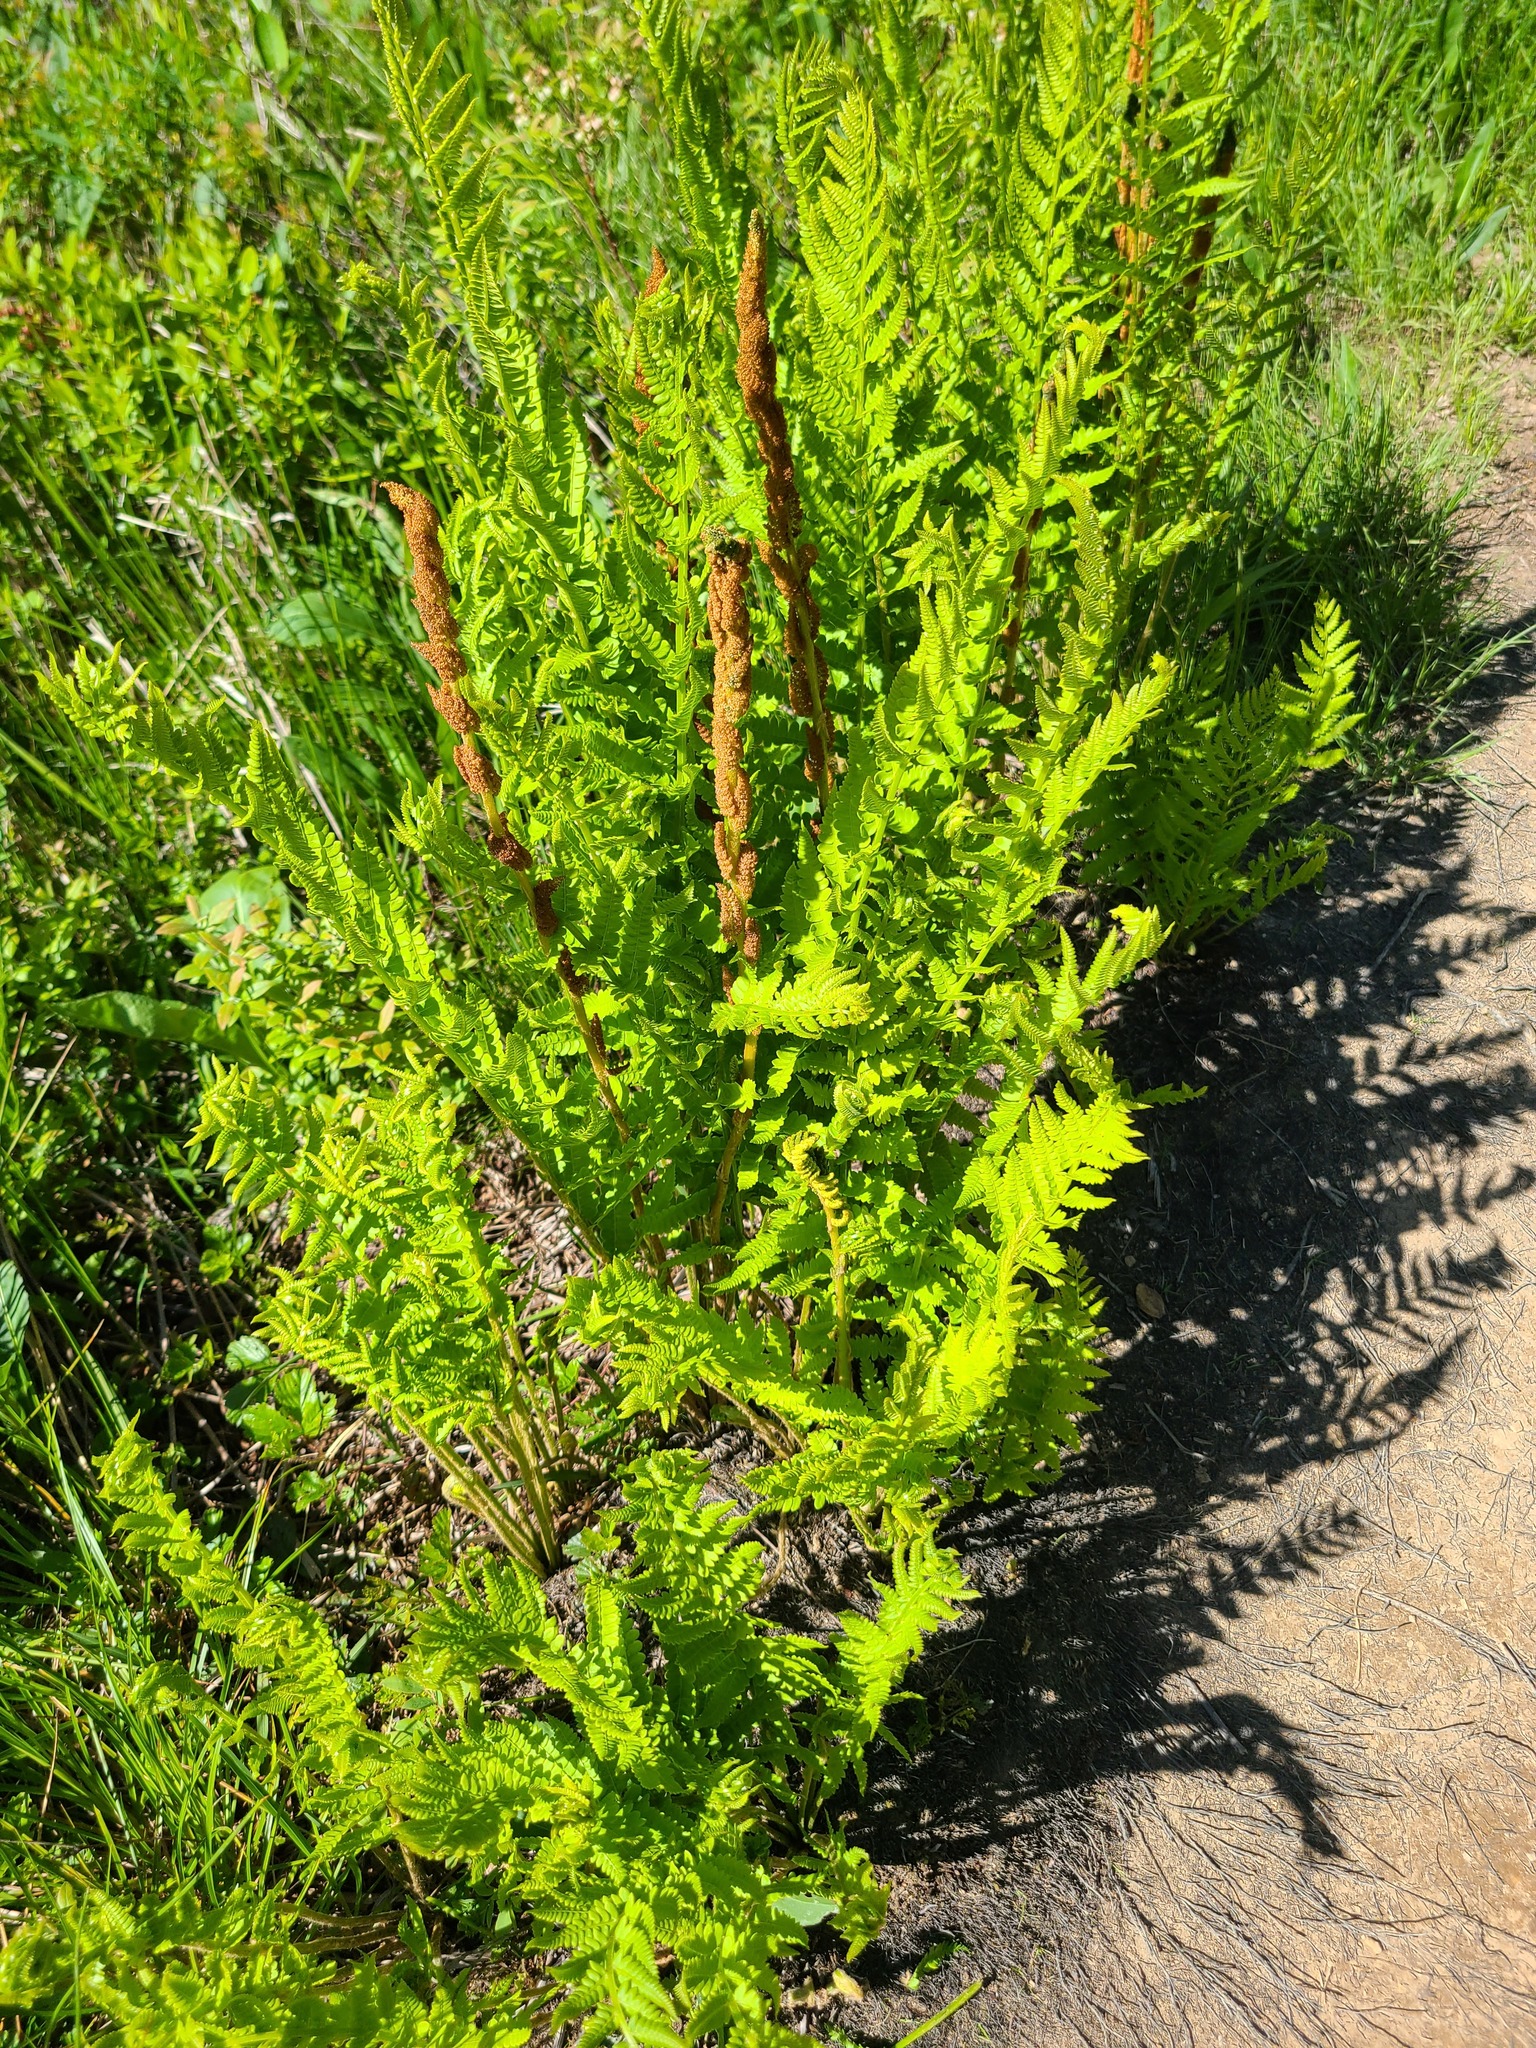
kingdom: Plantae
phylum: Tracheophyta
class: Polypodiopsida
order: Osmundales
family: Osmundaceae
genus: Osmundastrum
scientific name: Osmundastrum cinnamomeum
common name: Cinnamon fern
